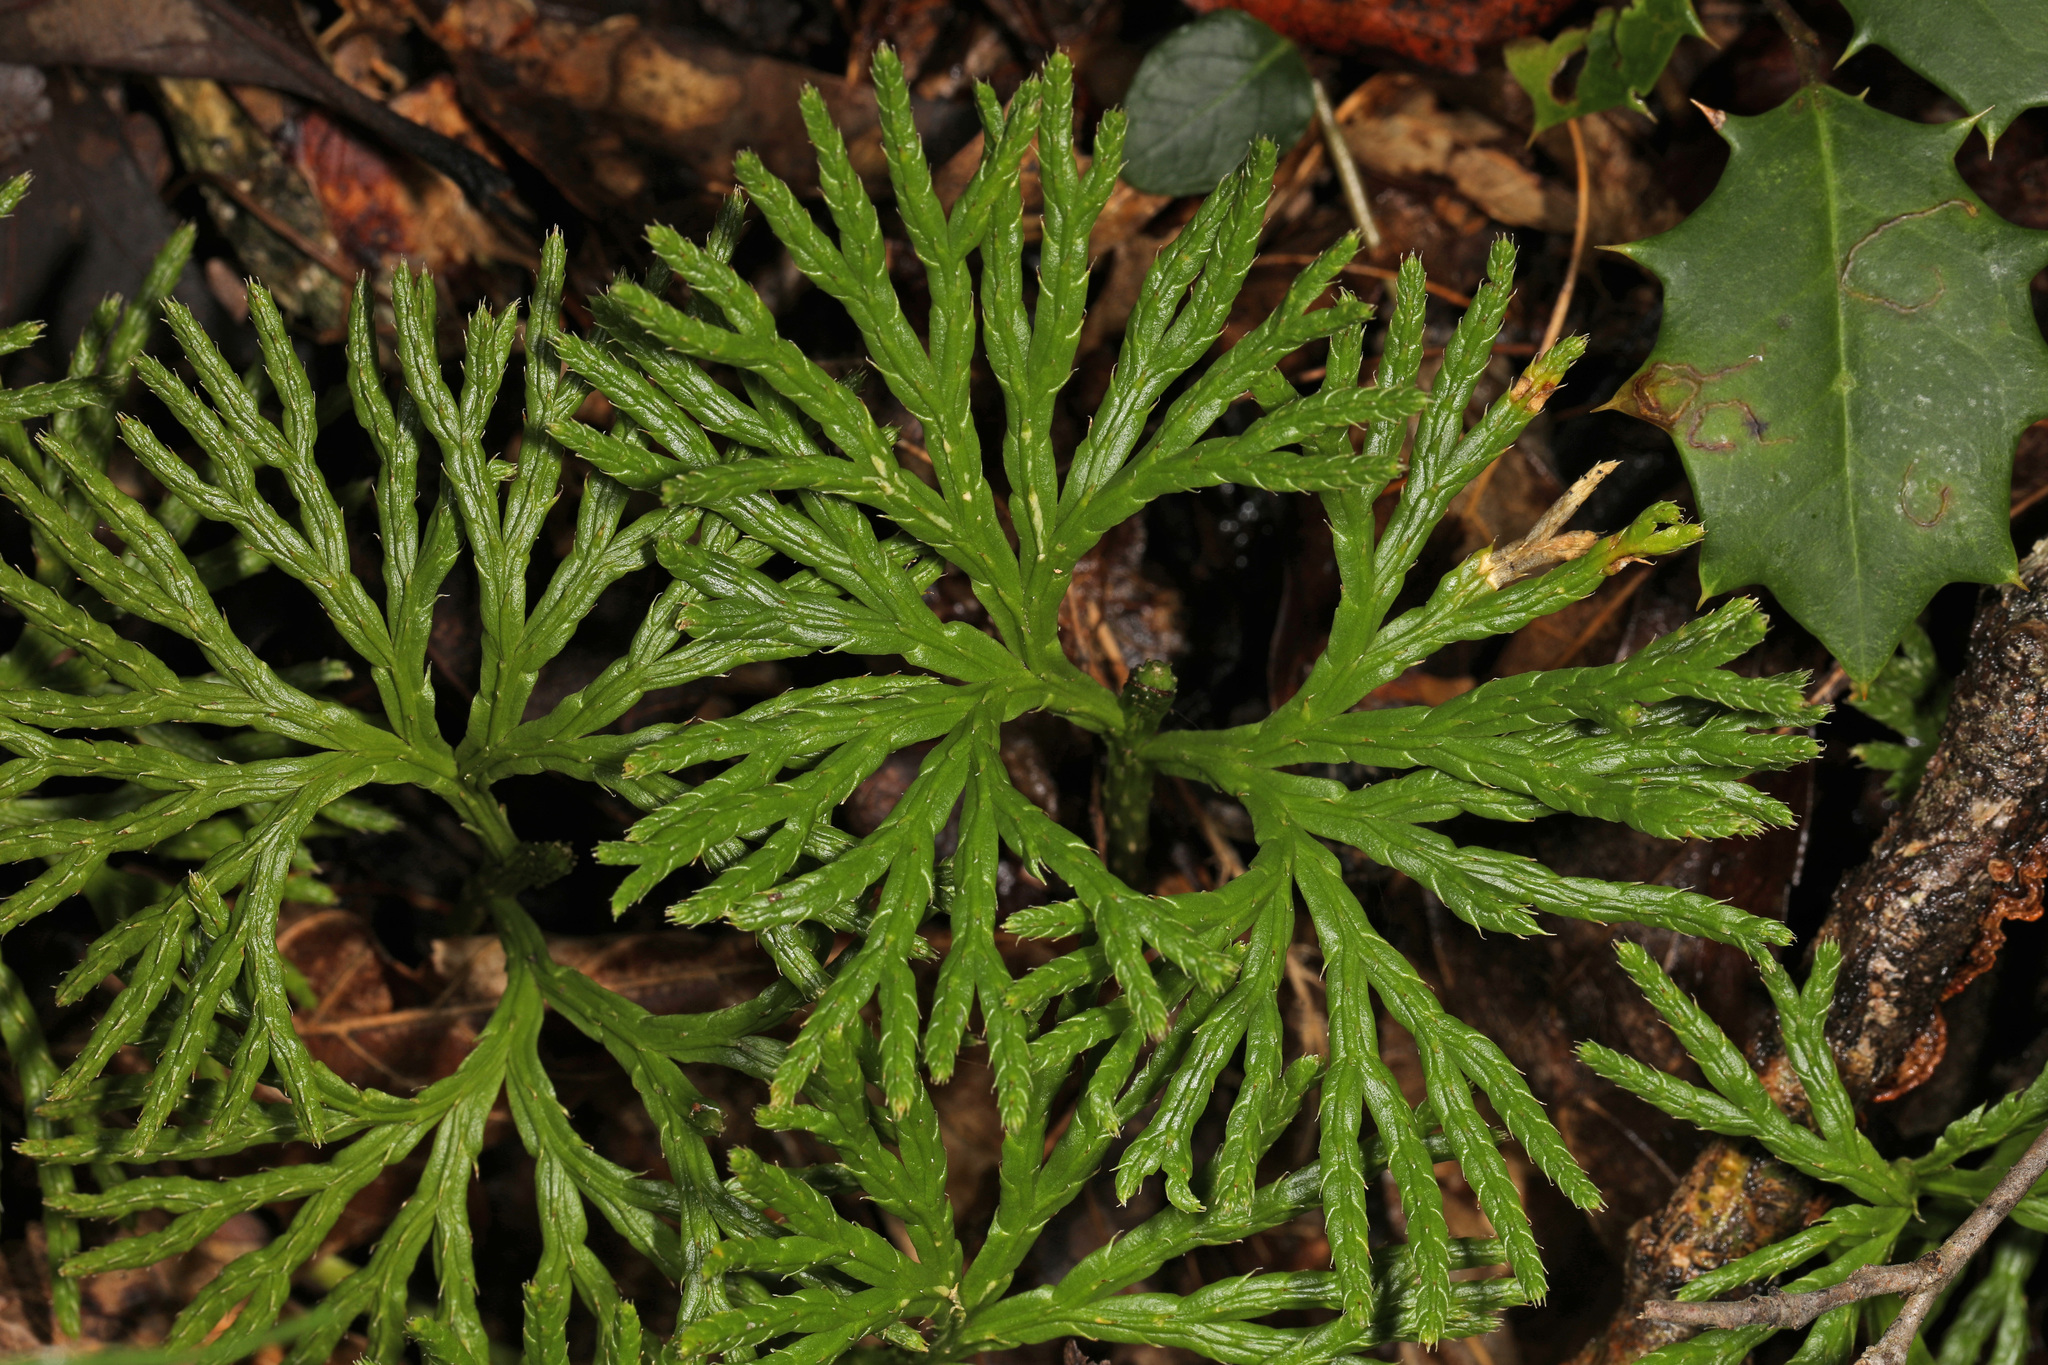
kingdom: Plantae
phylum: Tracheophyta
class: Lycopodiopsida
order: Lycopodiales
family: Lycopodiaceae
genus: Diphasiastrum
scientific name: Diphasiastrum digitatum
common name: Southern running-pine
